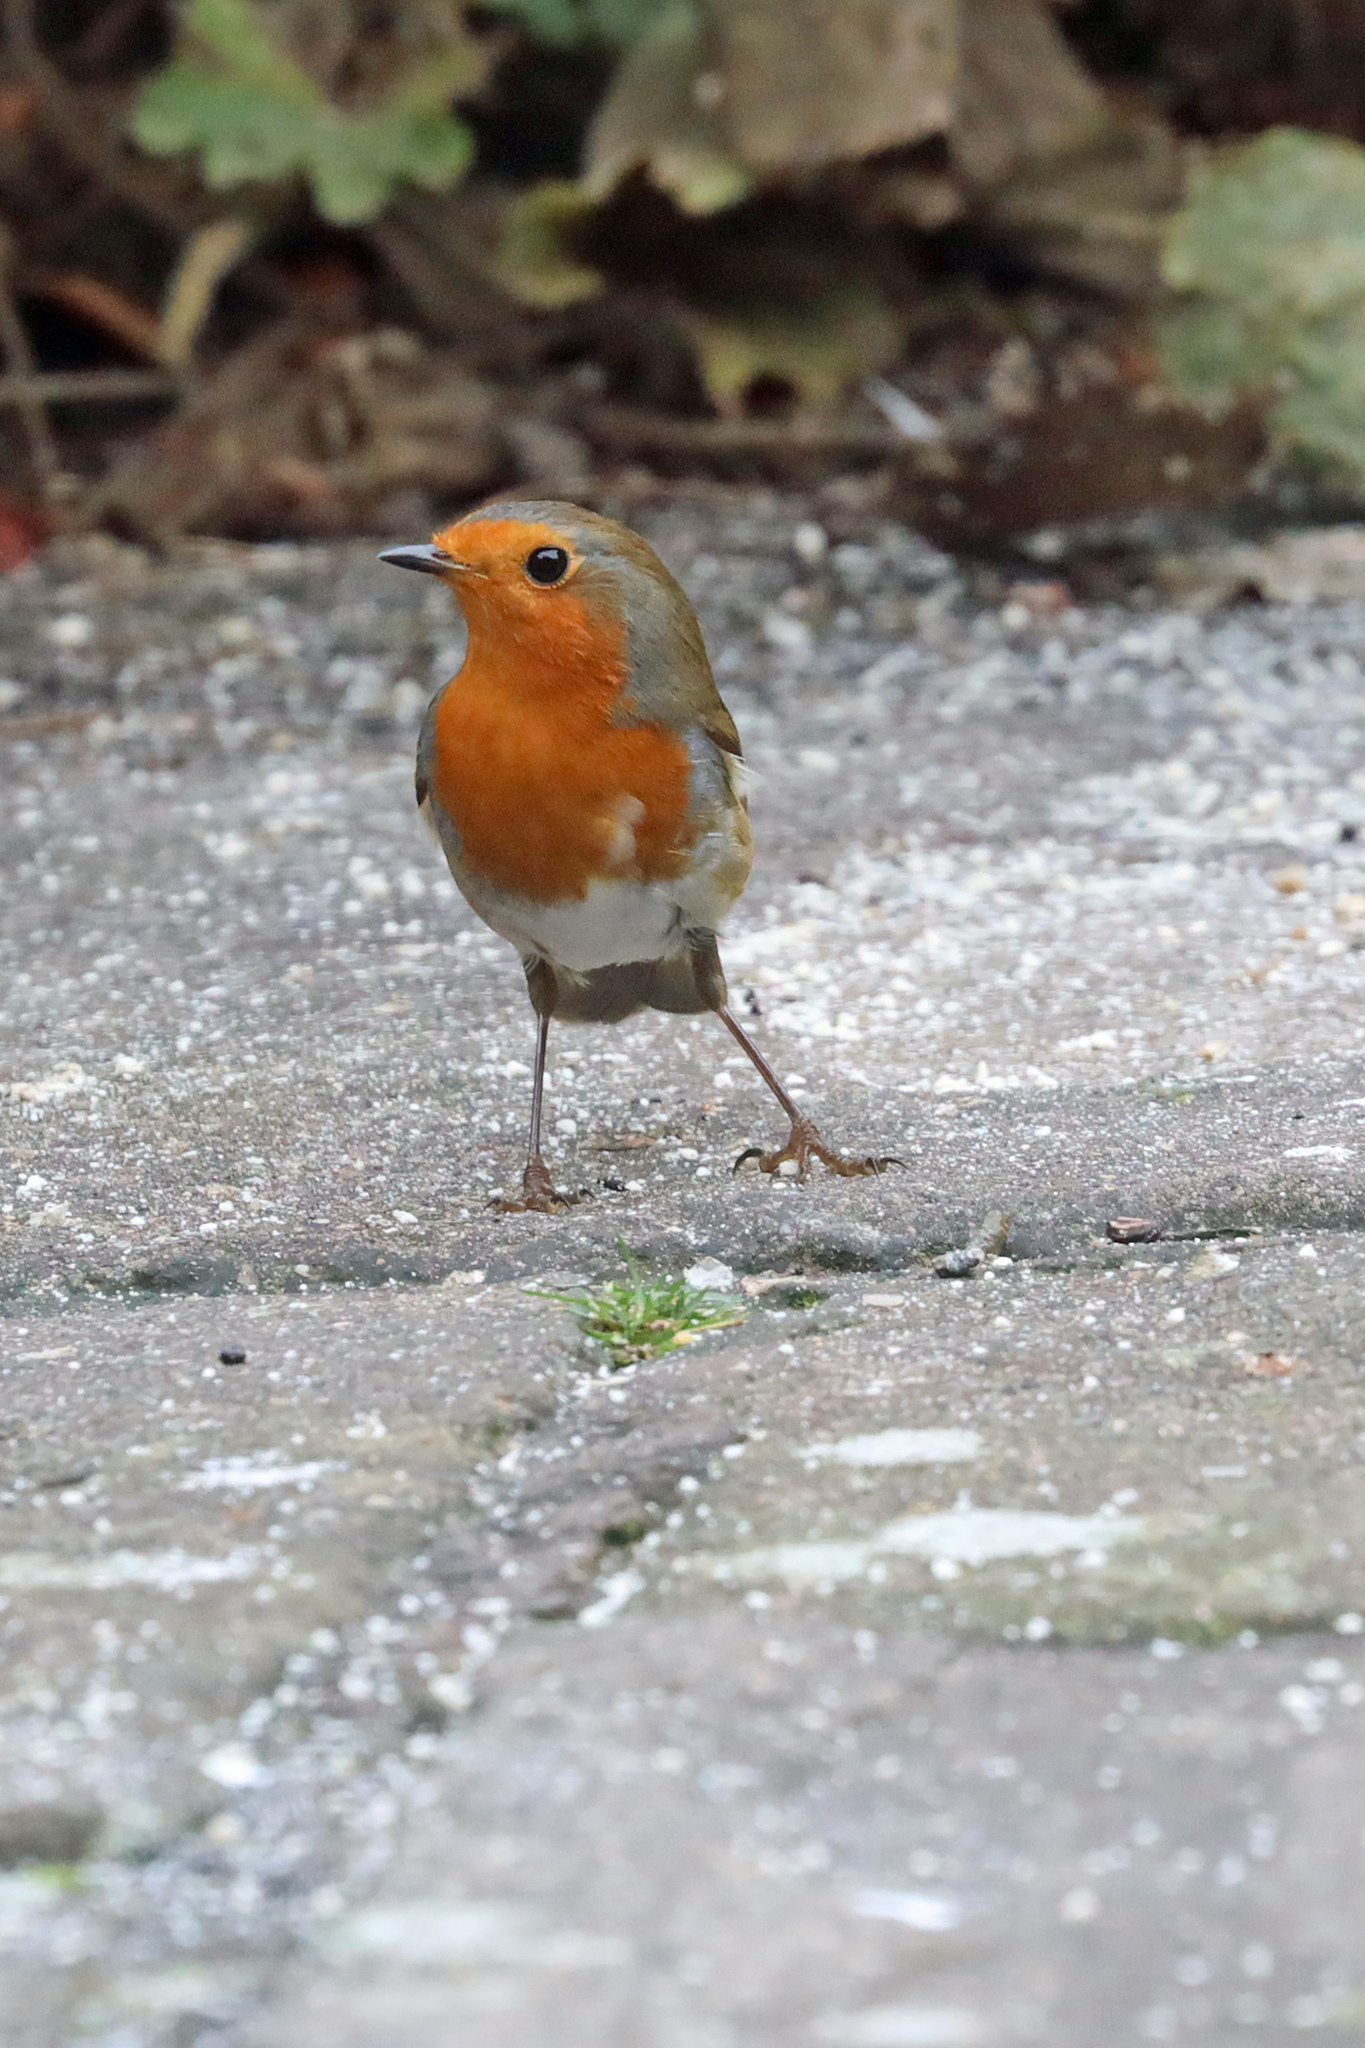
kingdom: Animalia
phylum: Chordata
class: Aves
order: Passeriformes
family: Muscicapidae
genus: Erithacus
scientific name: Erithacus rubecula
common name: European robin
